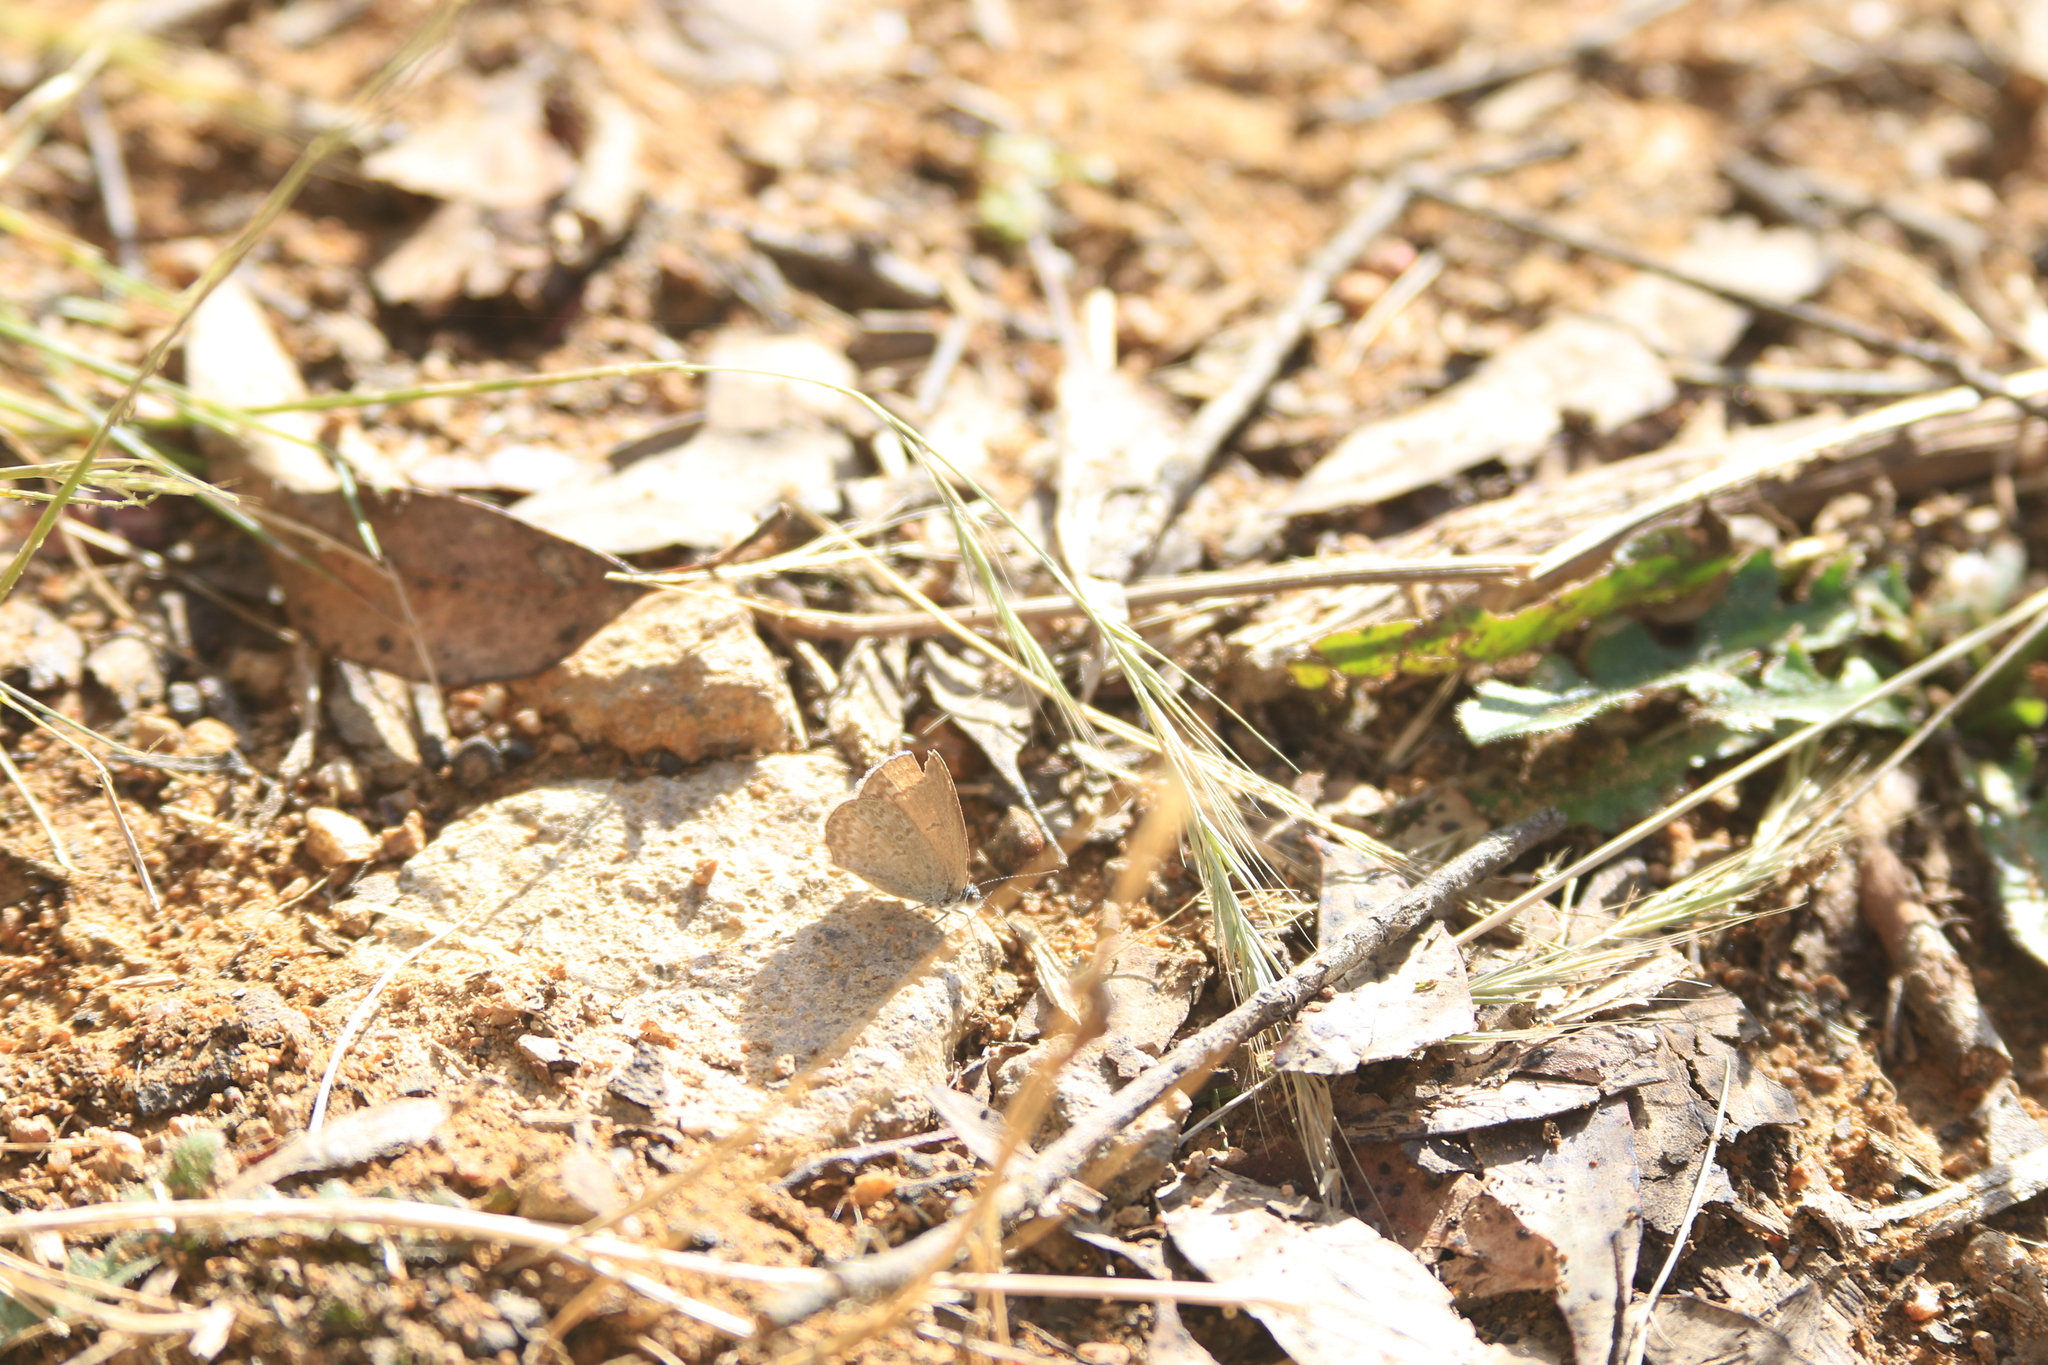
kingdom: Animalia
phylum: Arthropoda
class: Insecta
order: Lepidoptera
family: Lycaenidae
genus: Zizina
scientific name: Zizina labradus
